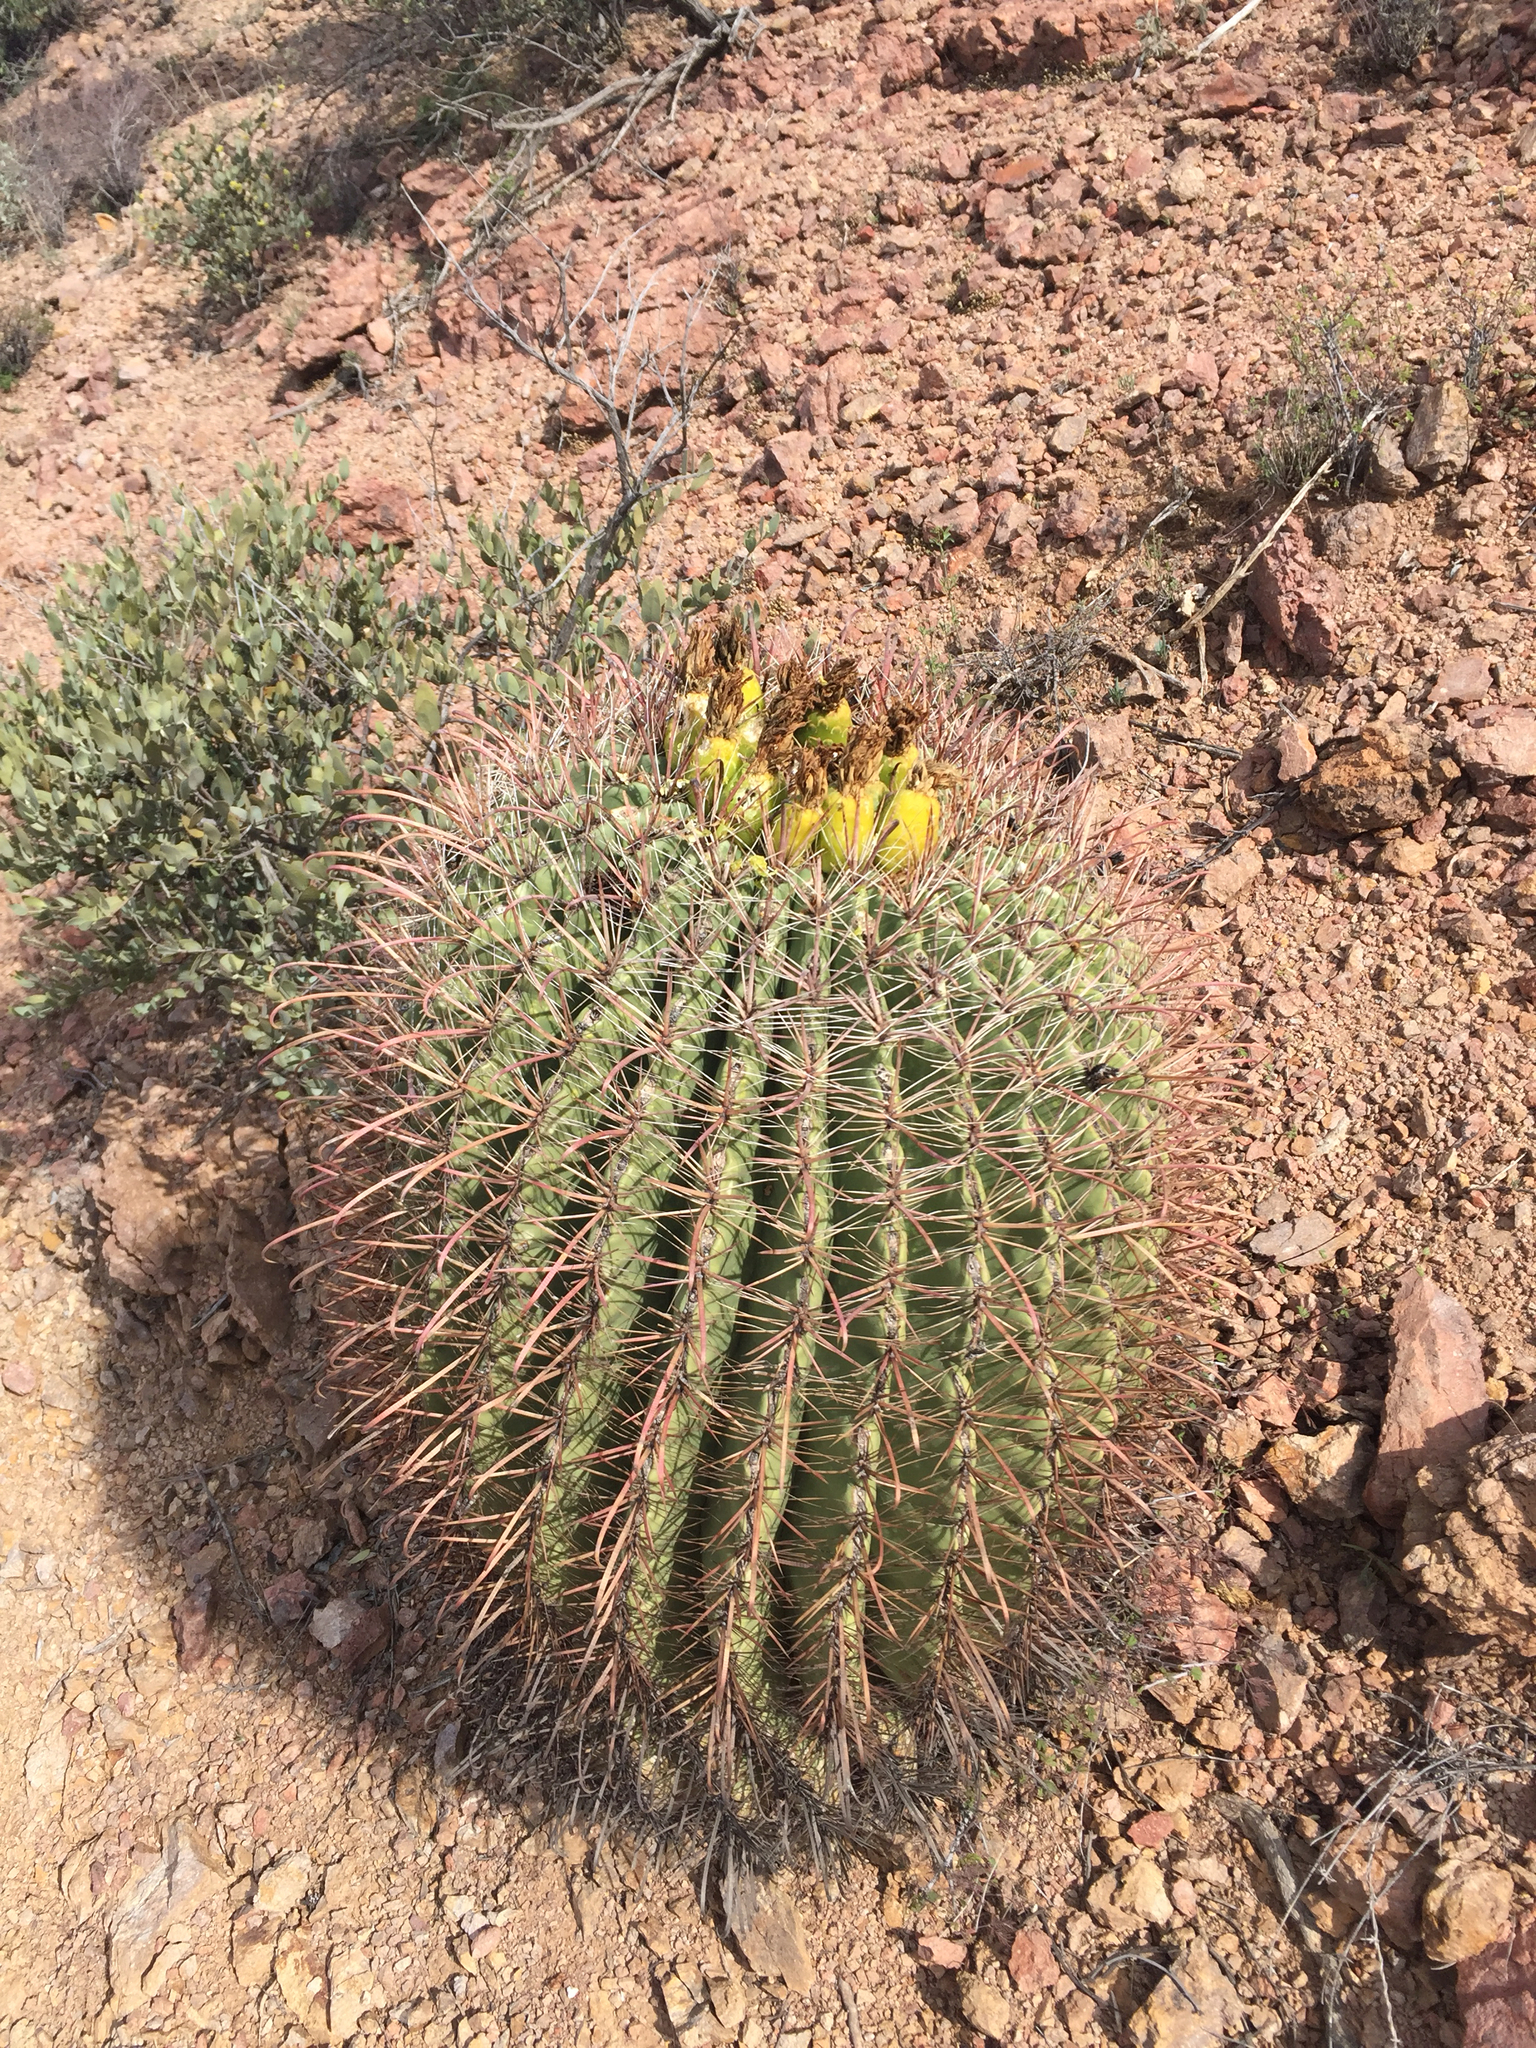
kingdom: Plantae
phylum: Tracheophyta
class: Magnoliopsida
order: Caryophyllales
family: Cactaceae
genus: Ferocactus
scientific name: Ferocactus wislizeni
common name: Candy barrel cactus
